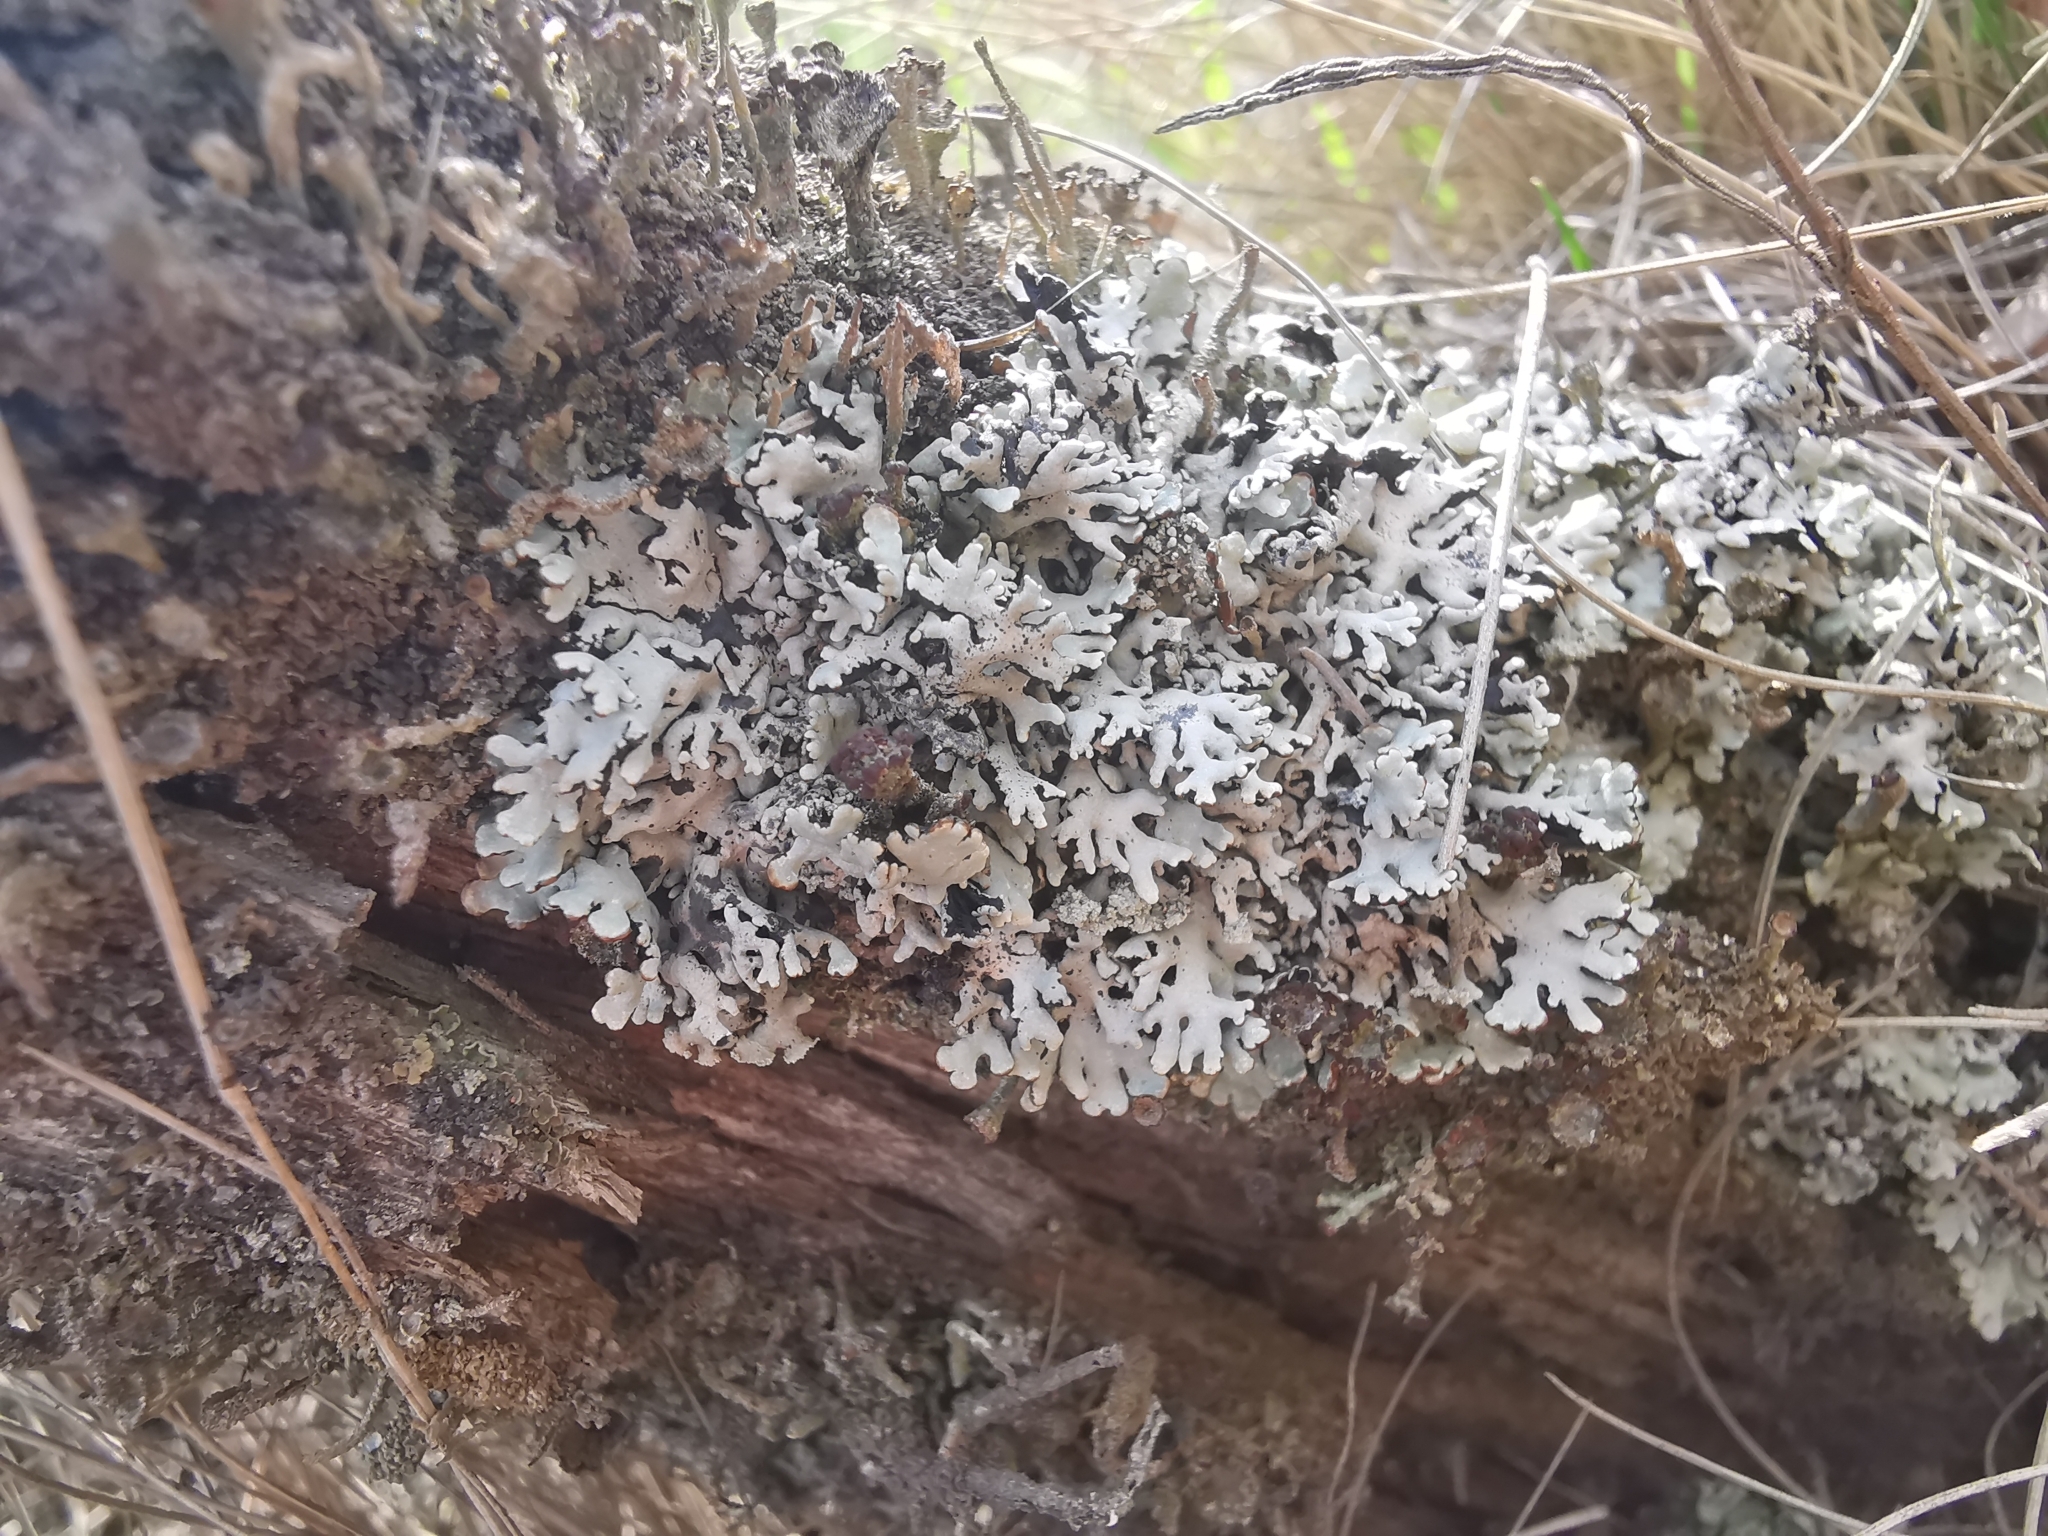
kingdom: Fungi
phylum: Ascomycota
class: Lecanoromycetes
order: Lecanorales
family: Parmeliaceae
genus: Hypogymnia
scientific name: Hypogymnia physodes
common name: Dark crottle
